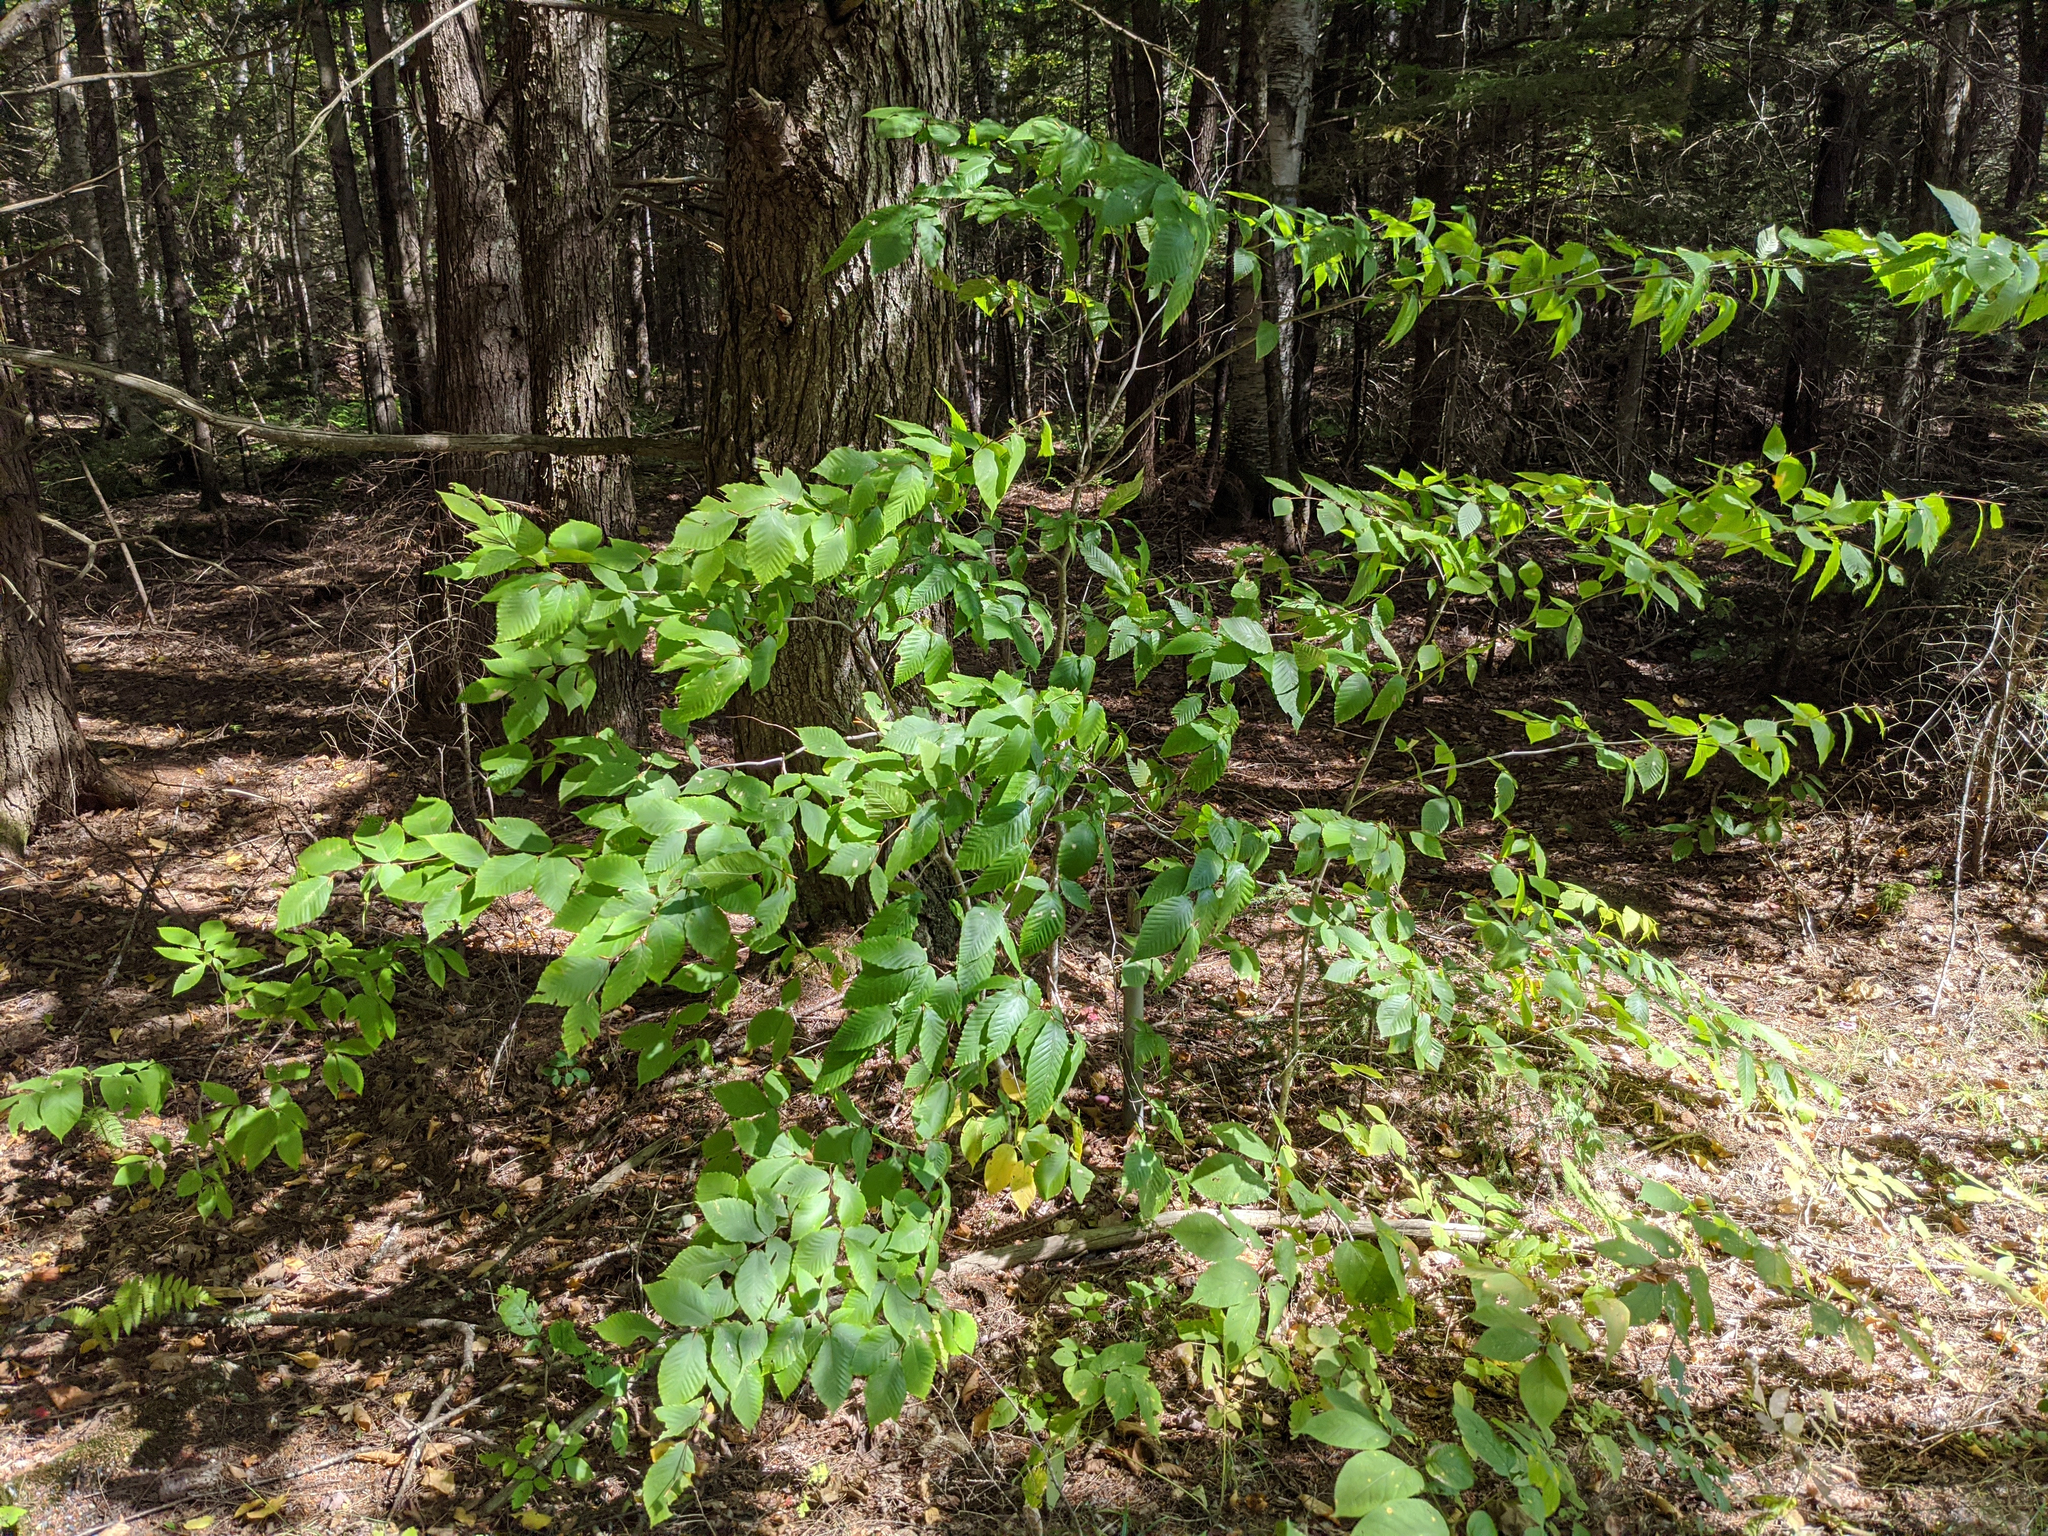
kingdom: Plantae
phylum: Tracheophyta
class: Magnoliopsida
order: Fagales
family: Fagaceae
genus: Fagus
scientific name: Fagus grandifolia
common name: American beech
